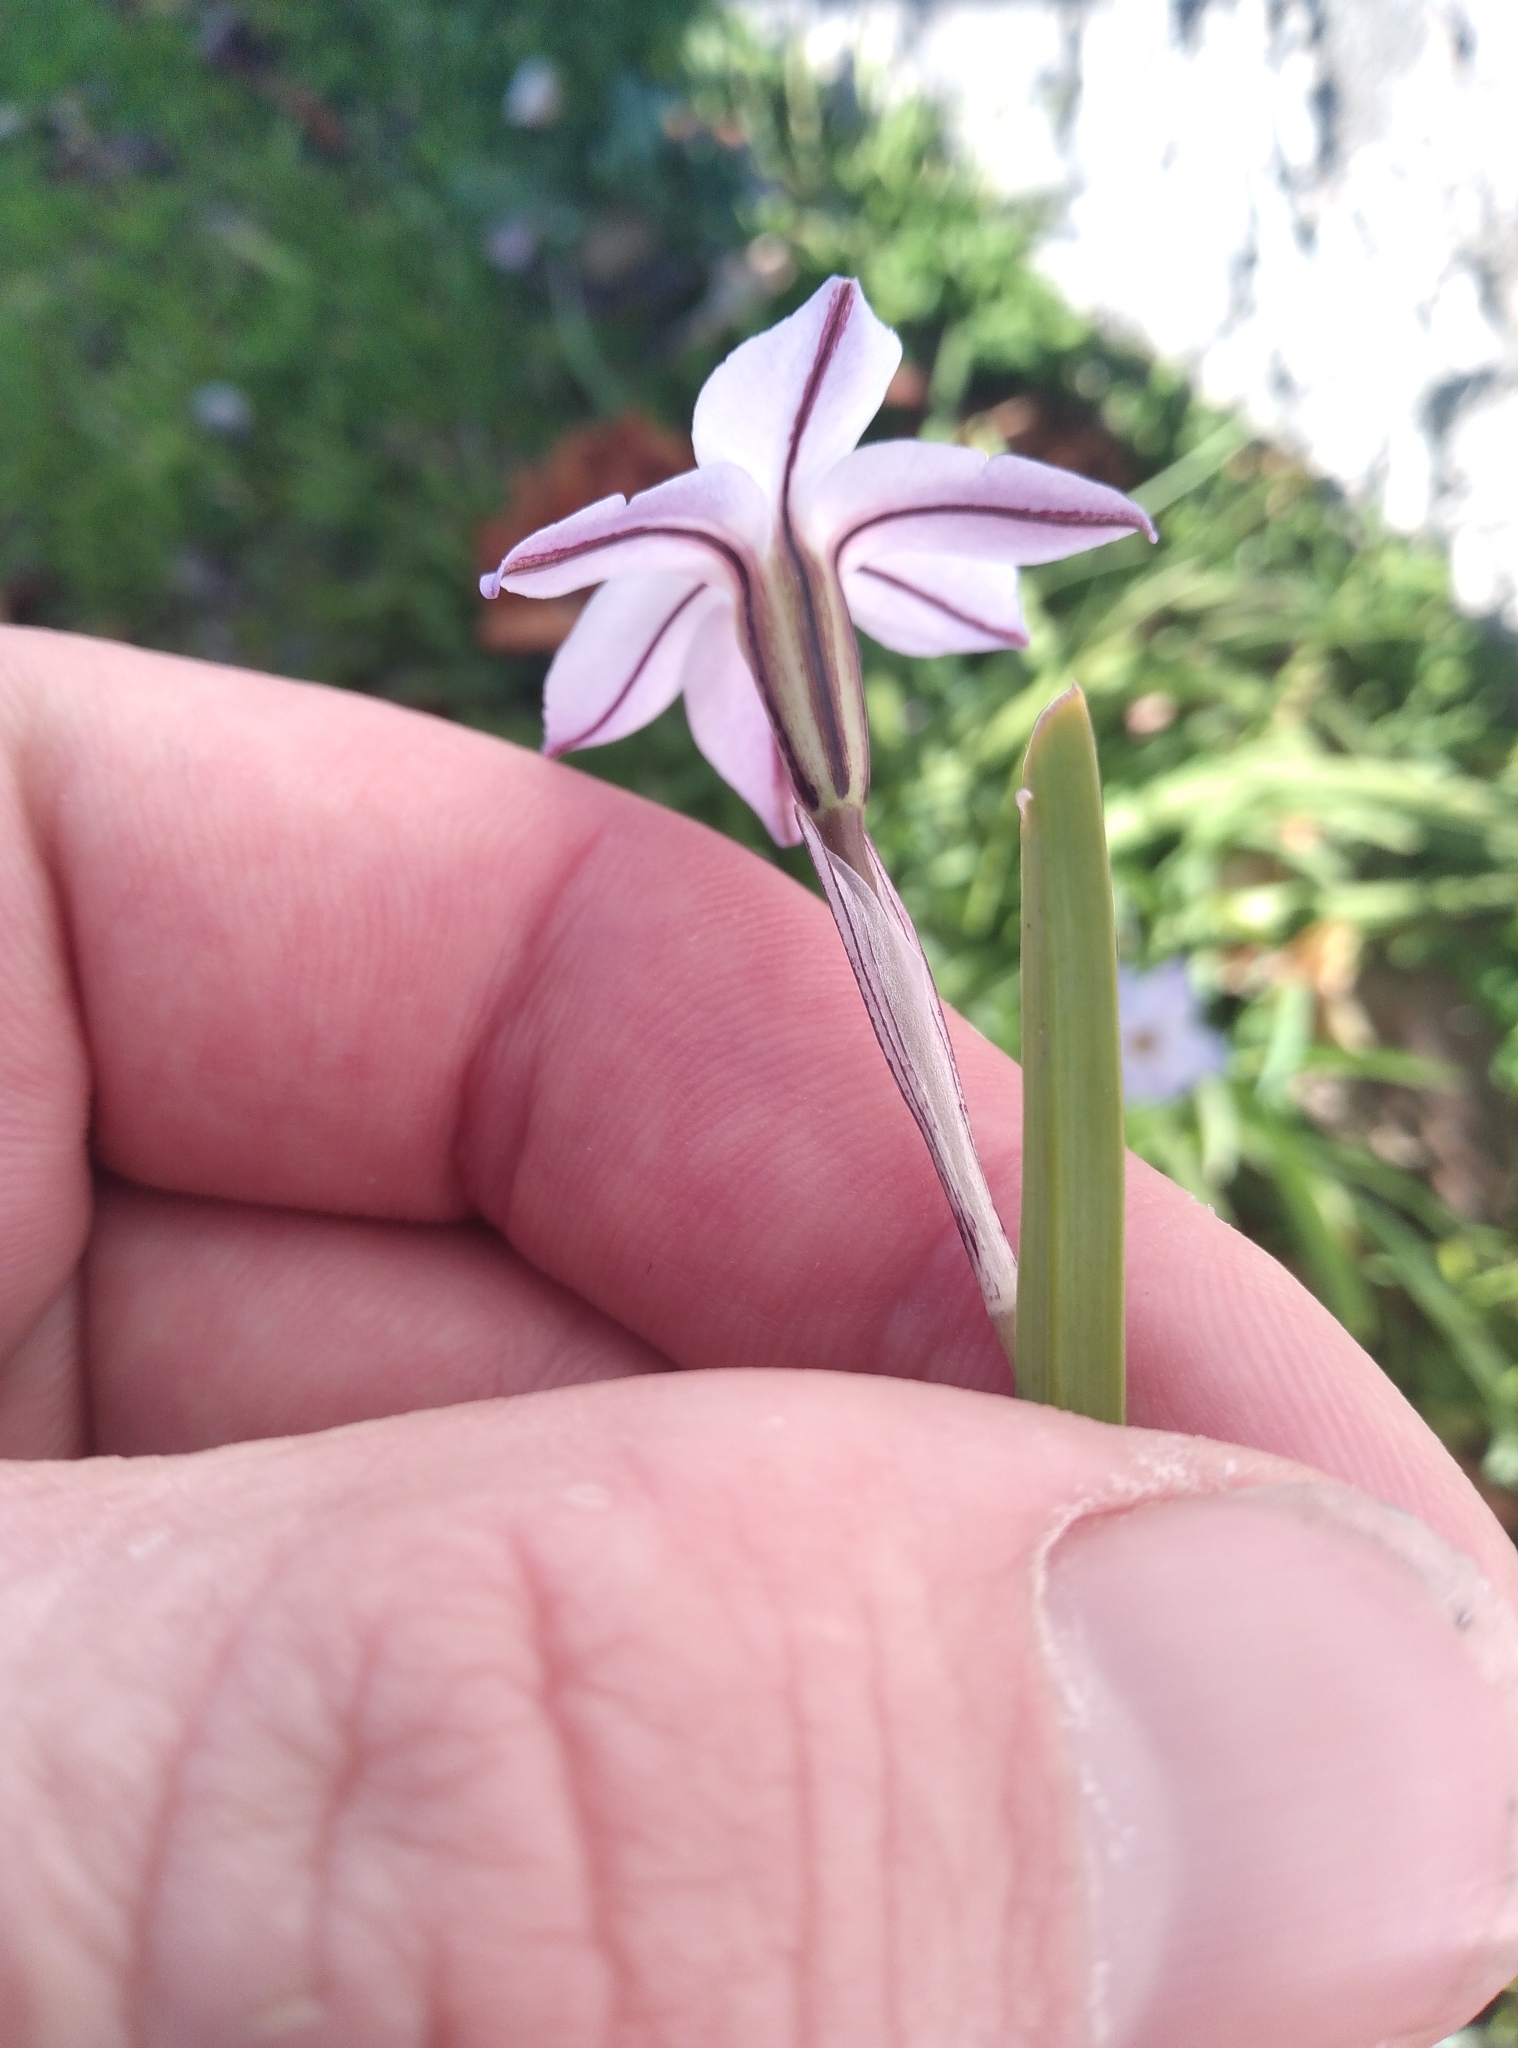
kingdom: Plantae
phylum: Tracheophyta
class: Liliopsida
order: Asparagales
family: Amaryllidaceae
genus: Ipheion
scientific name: Ipheion uniflorum
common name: Spring starflower
